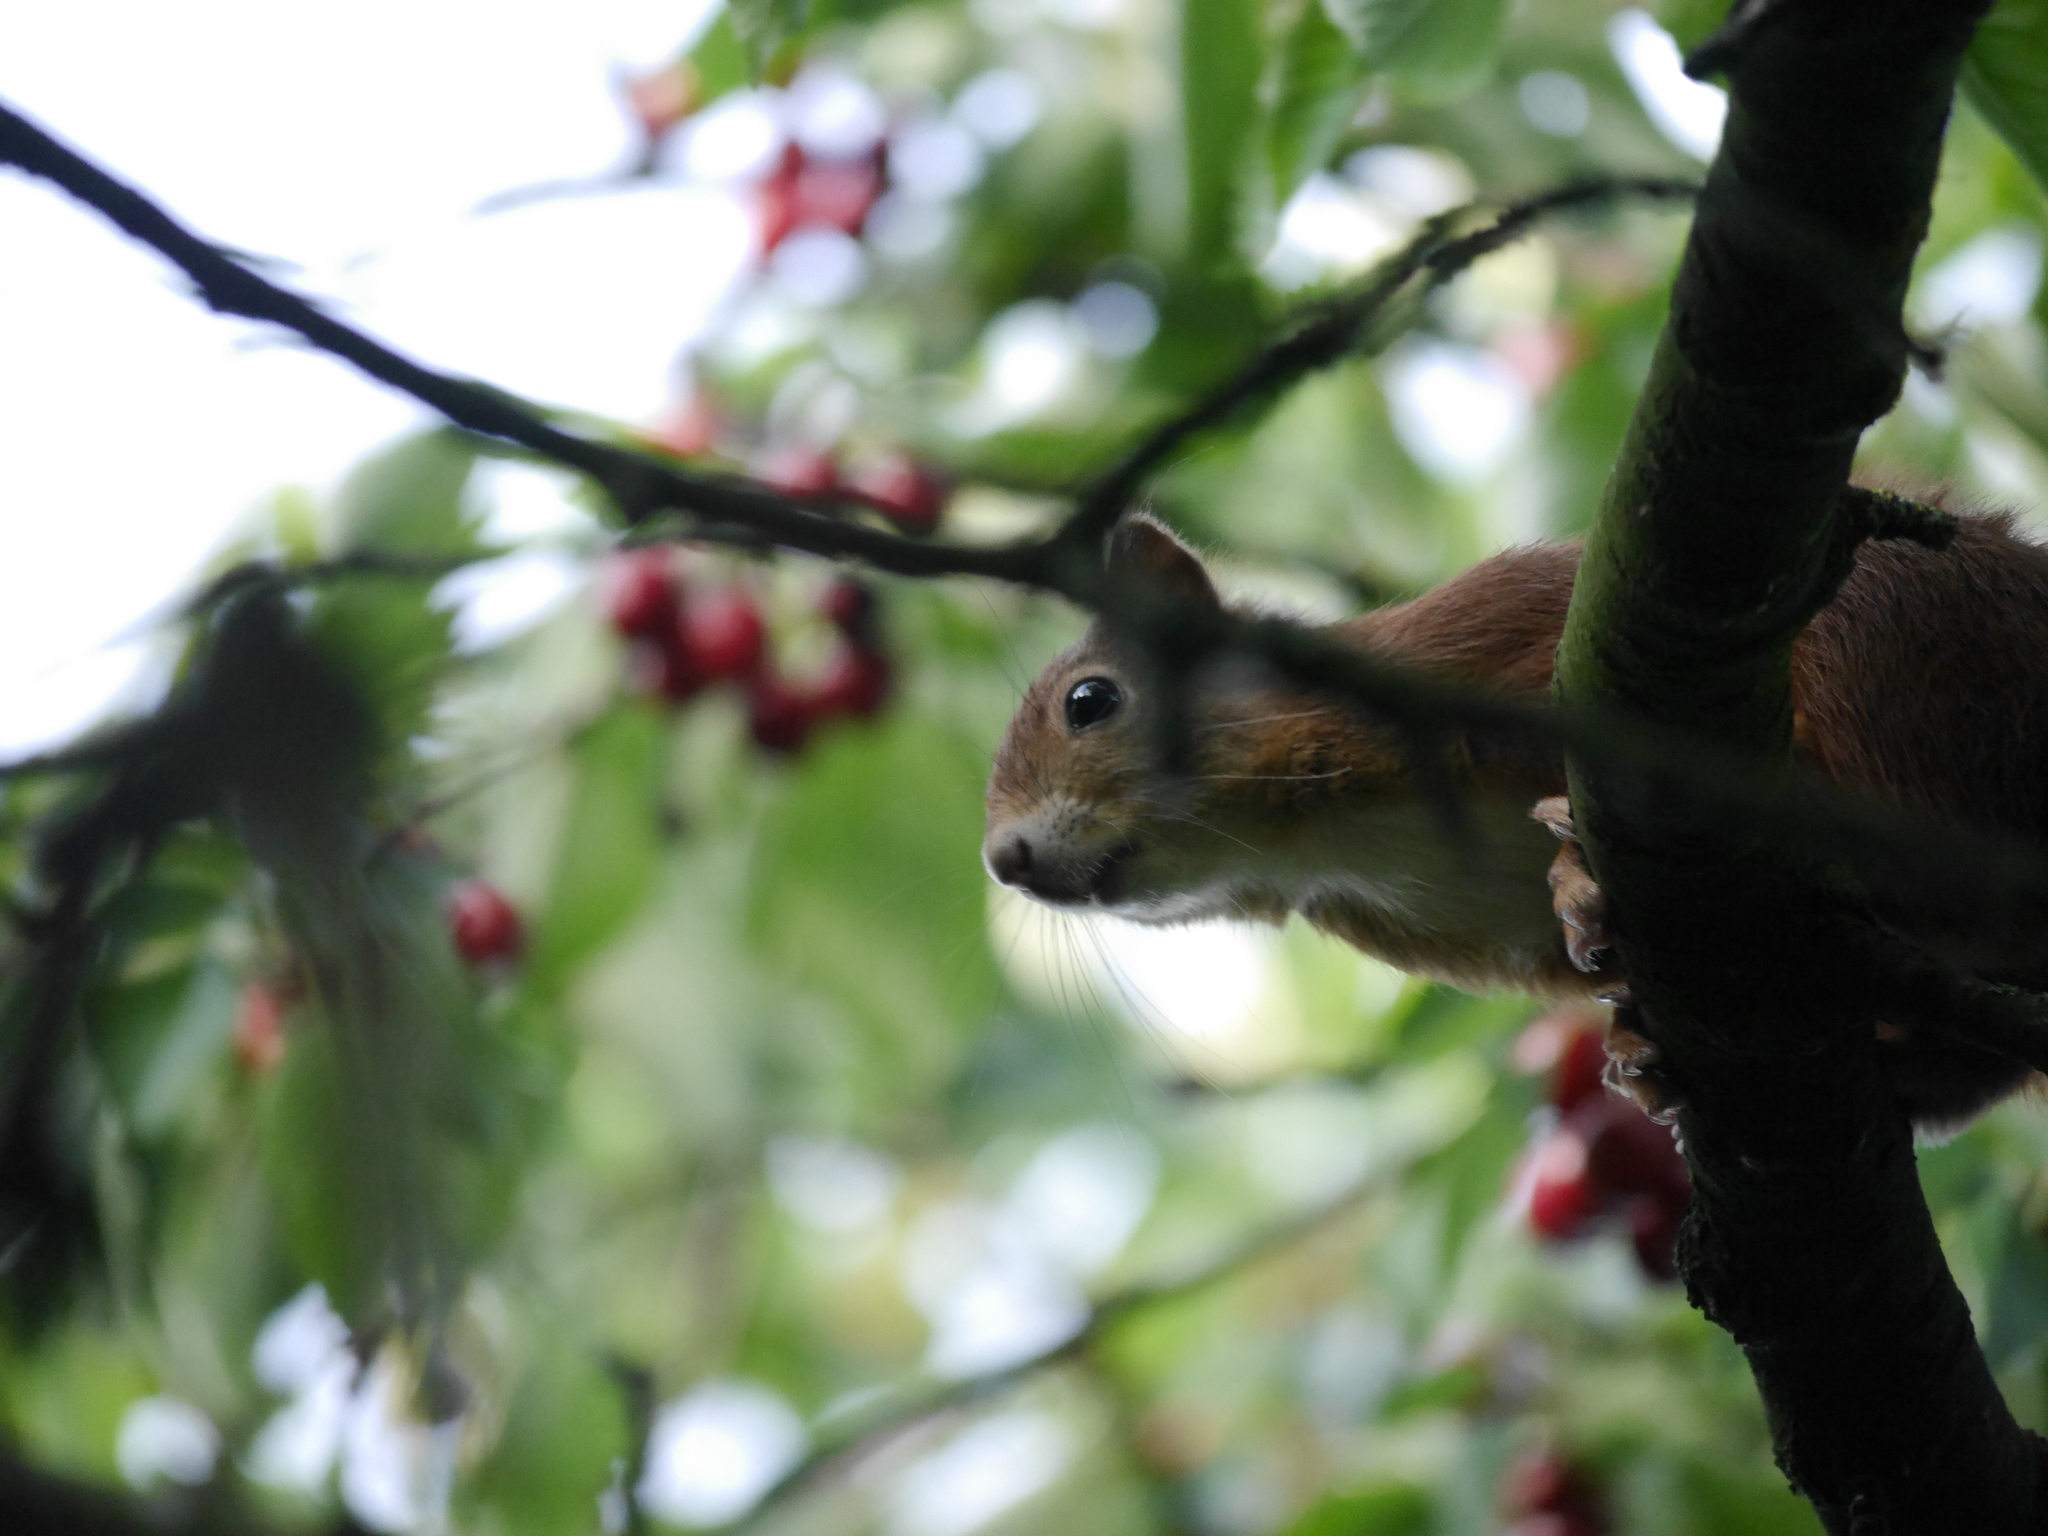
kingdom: Animalia
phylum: Chordata
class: Mammalia
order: Rodentia
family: Sciuridae
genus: Sciurus
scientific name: Sciurus vulgaris
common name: Eurasian red squirrel
